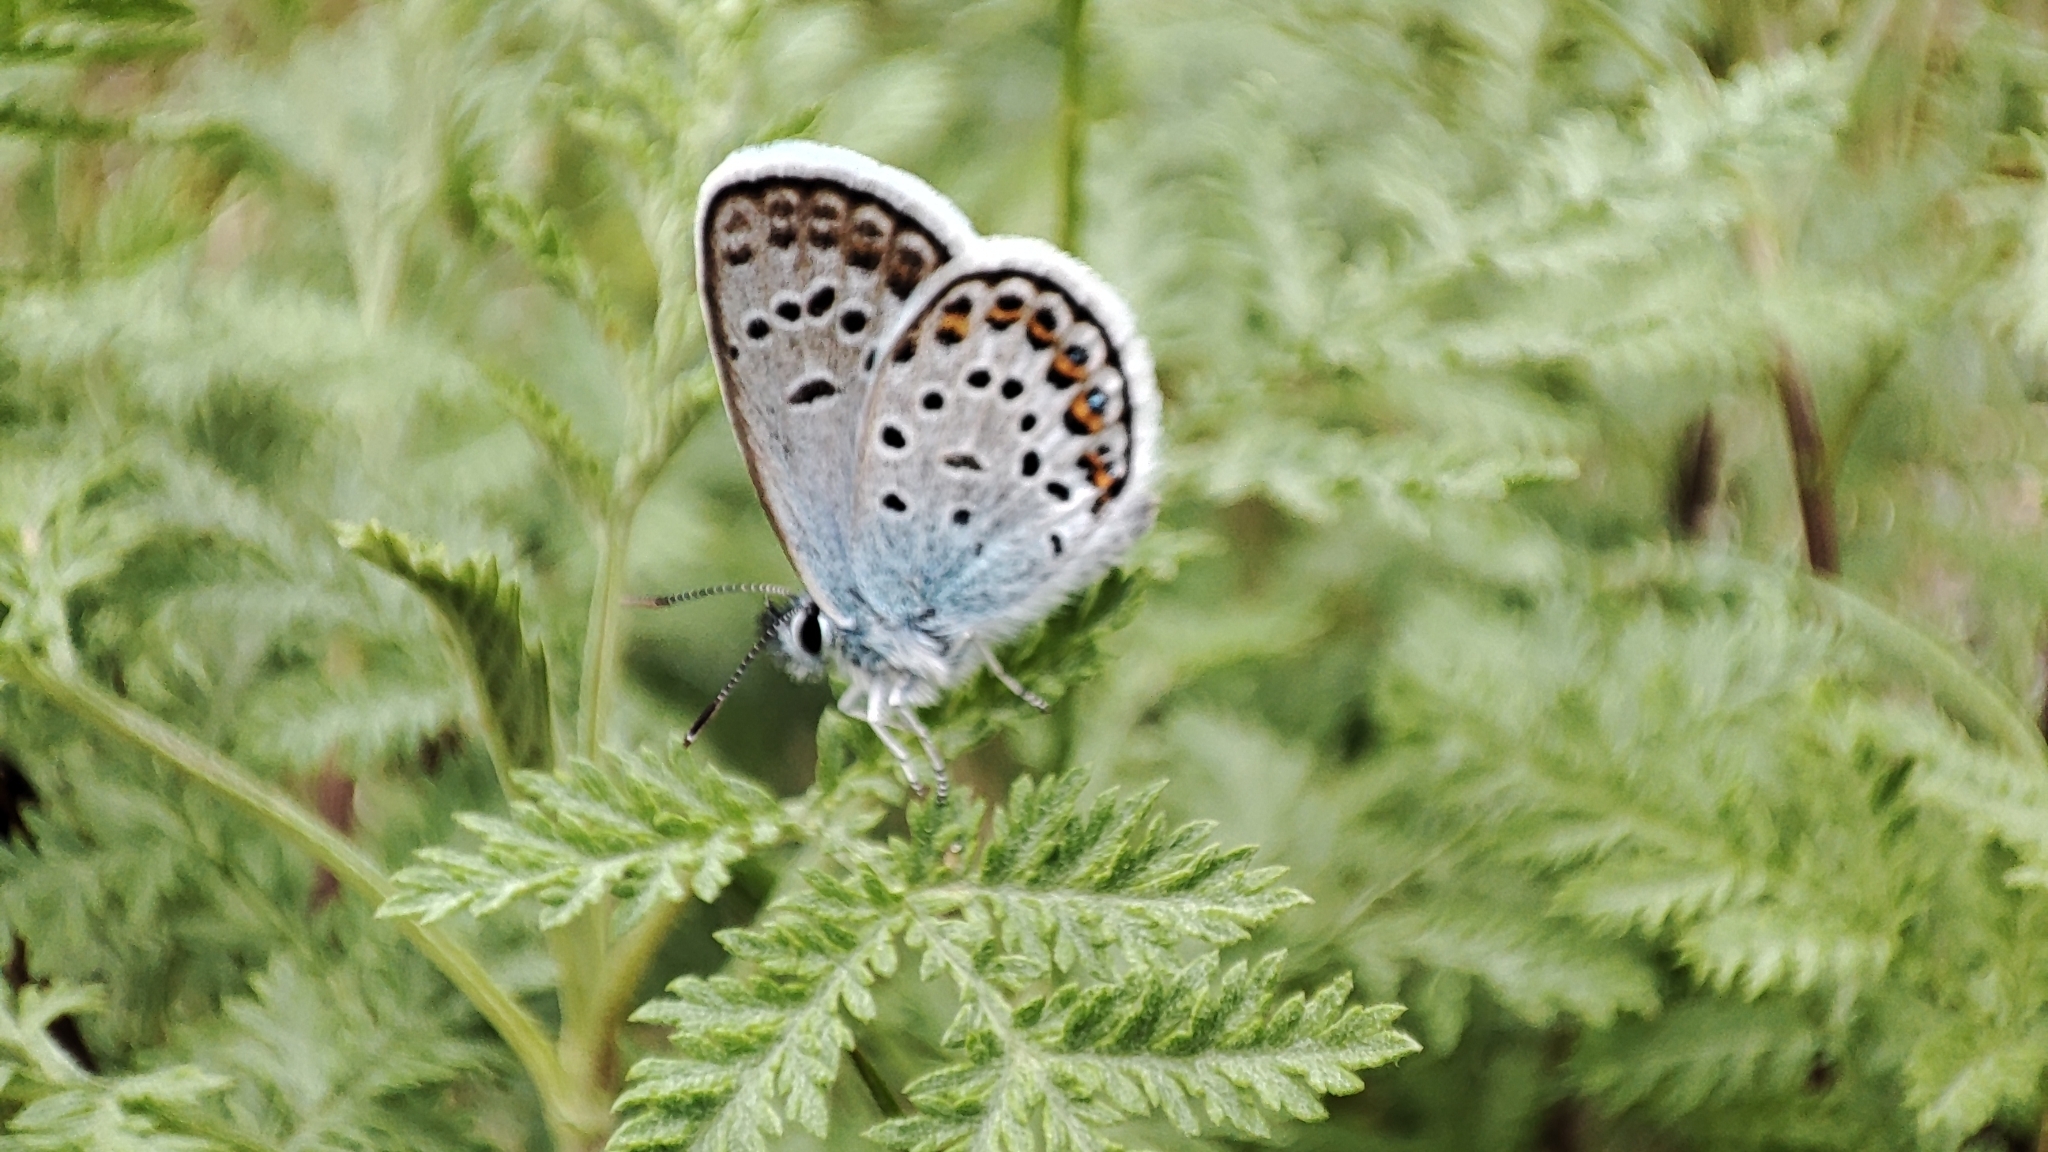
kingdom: Animalia
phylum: Arthropoda
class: Insecta
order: Lepidoptera
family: Lycaenidae
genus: Plebejus
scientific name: Plebejus argus
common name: Silver-studded blue
